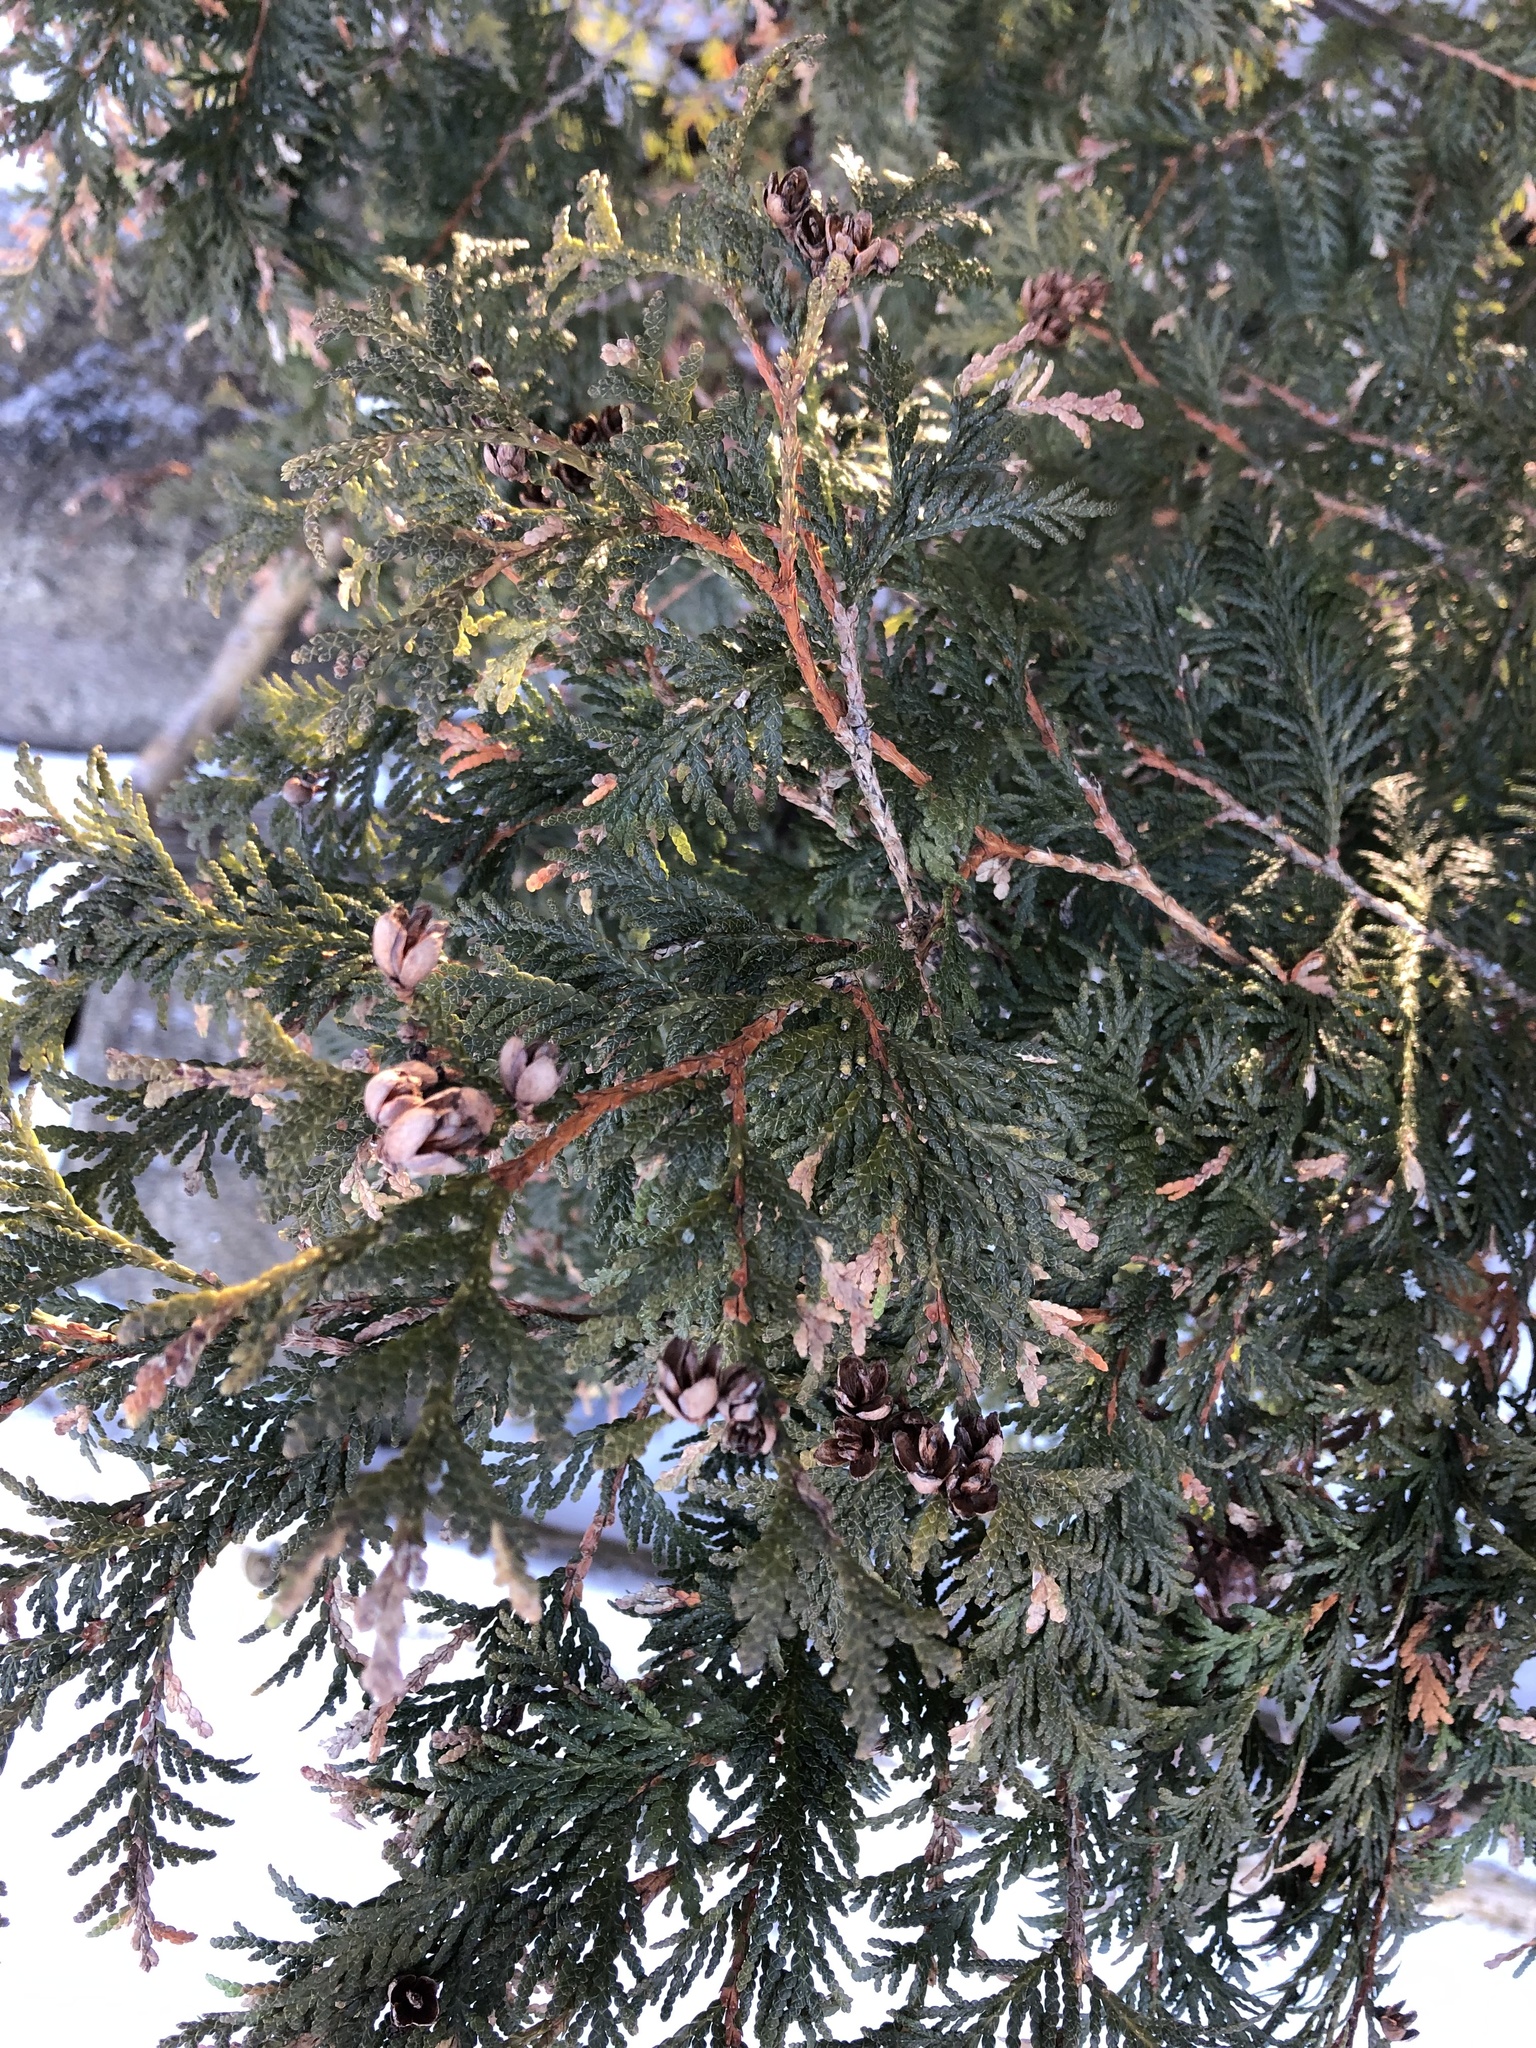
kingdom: Plantae
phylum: Tracheophyta
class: Pinopsida
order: Pinales
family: Cupressaceae
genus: Thuja
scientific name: Thuja occidentalis
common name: Northern white-cedar
